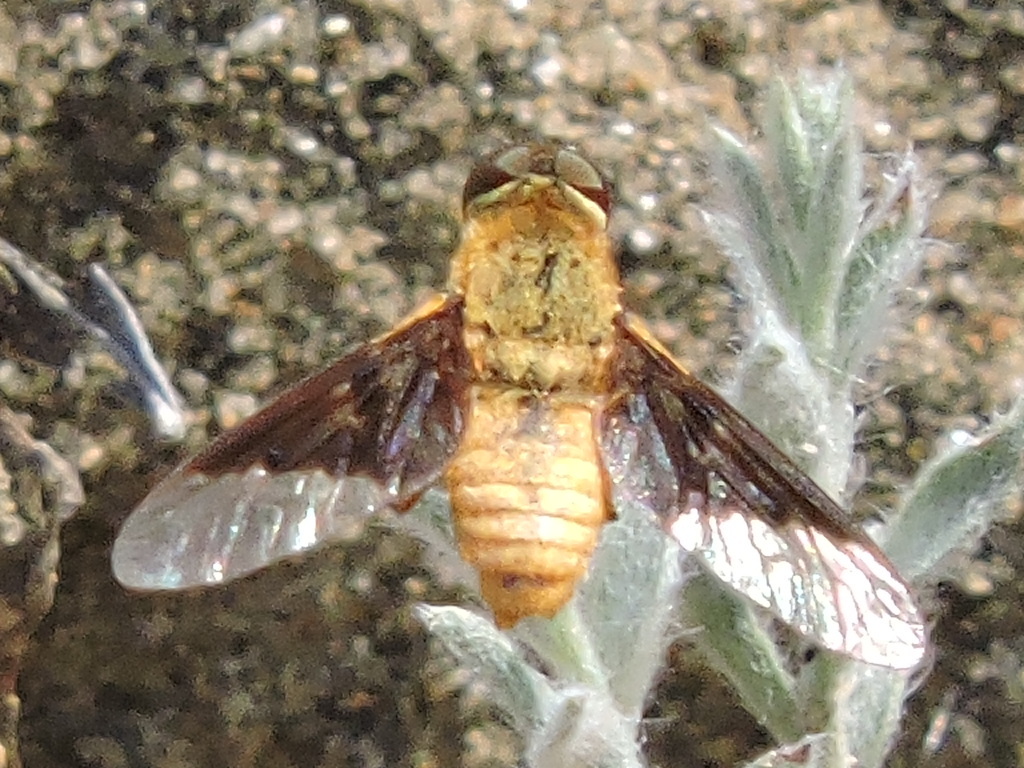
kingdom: Animalia
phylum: Arthropoda
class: Insecta
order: Diptera
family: Bombyliidae
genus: Chrysanthrax
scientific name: Chrysanthrax cypris
